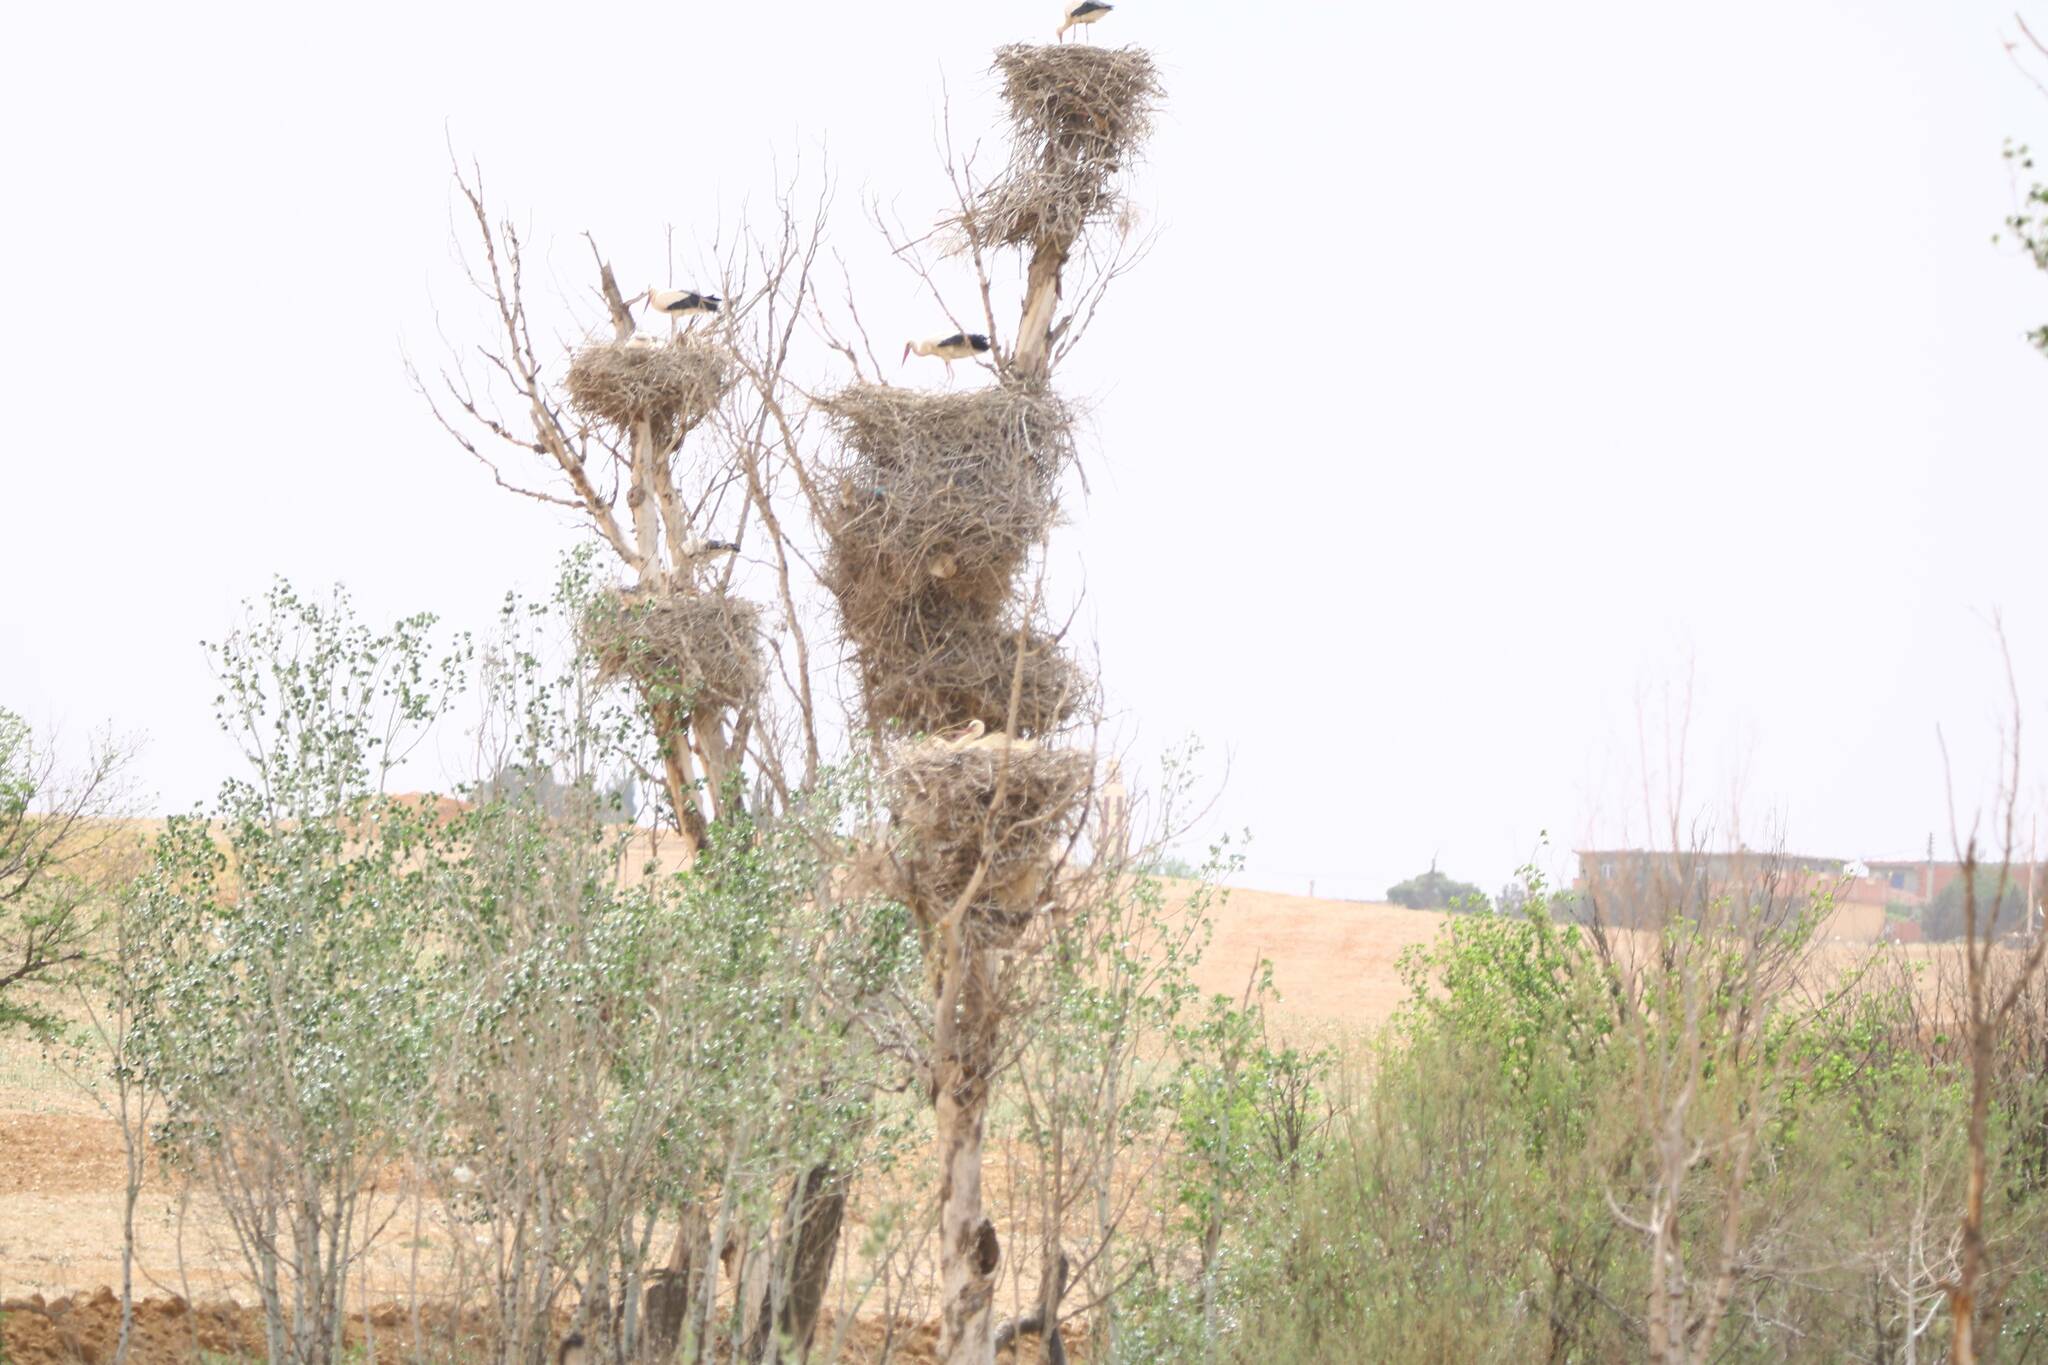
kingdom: Animalia
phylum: Chordata
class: Aves
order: Ciconiiformes
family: Ciconiidae
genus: Ciconia
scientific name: Ciconia ciconia
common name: White stork
